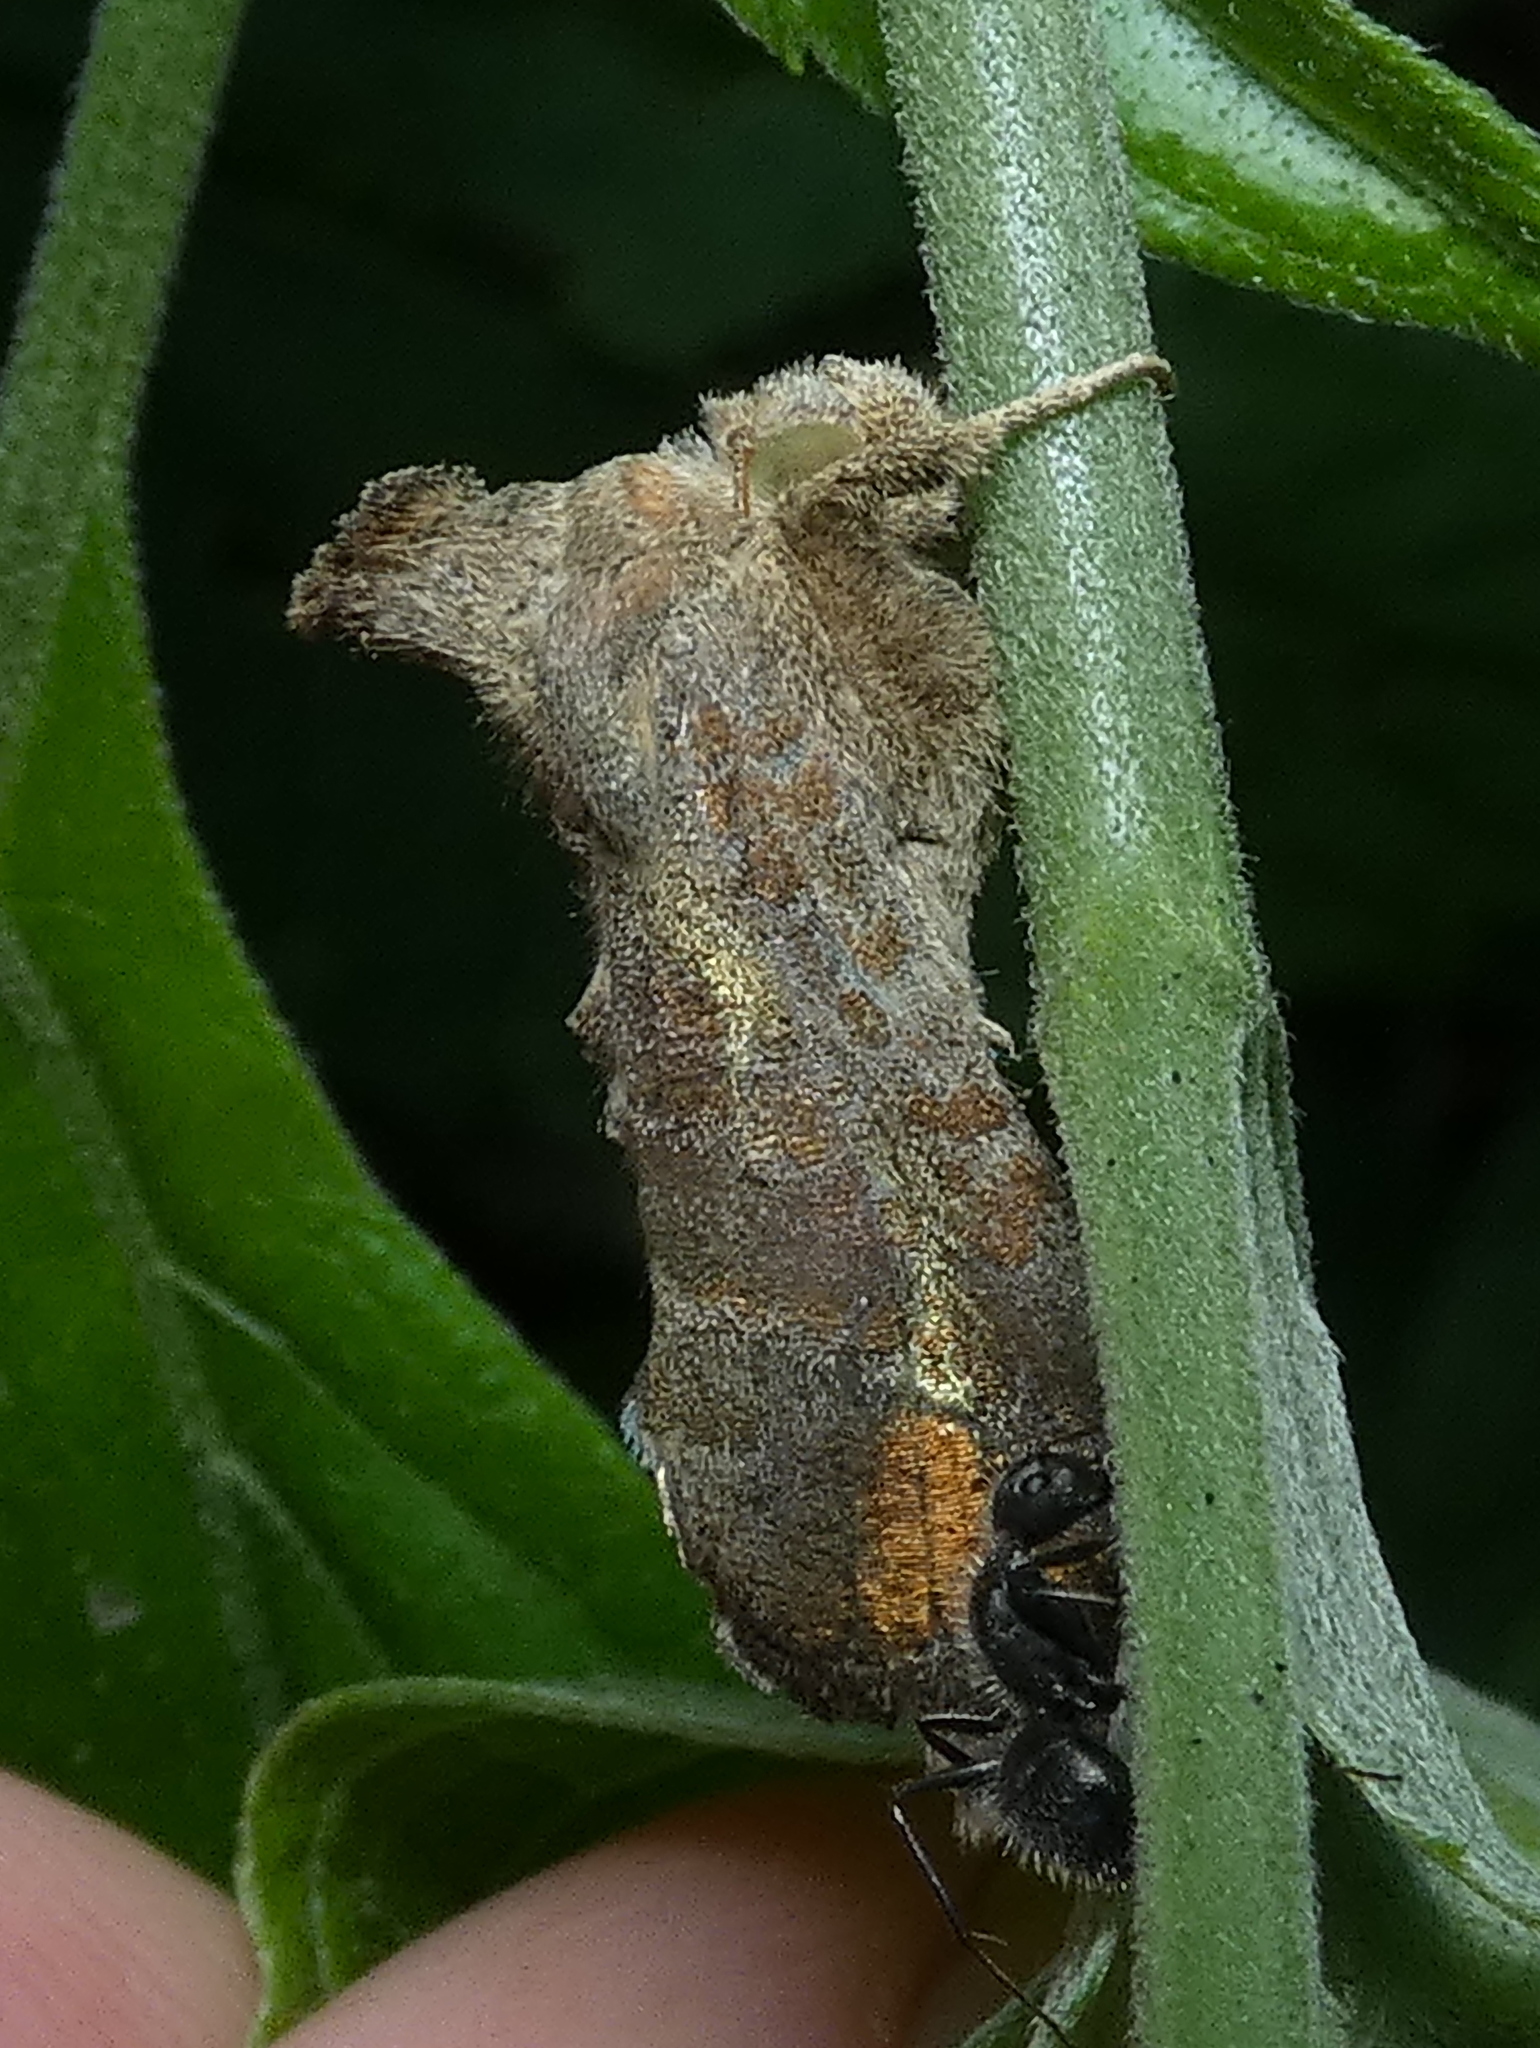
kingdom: Animalia
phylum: Arthropoda
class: Insecta
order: Lepidoptera
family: Noctuidae
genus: Notioplusia
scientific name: Notioplusia illustrata
